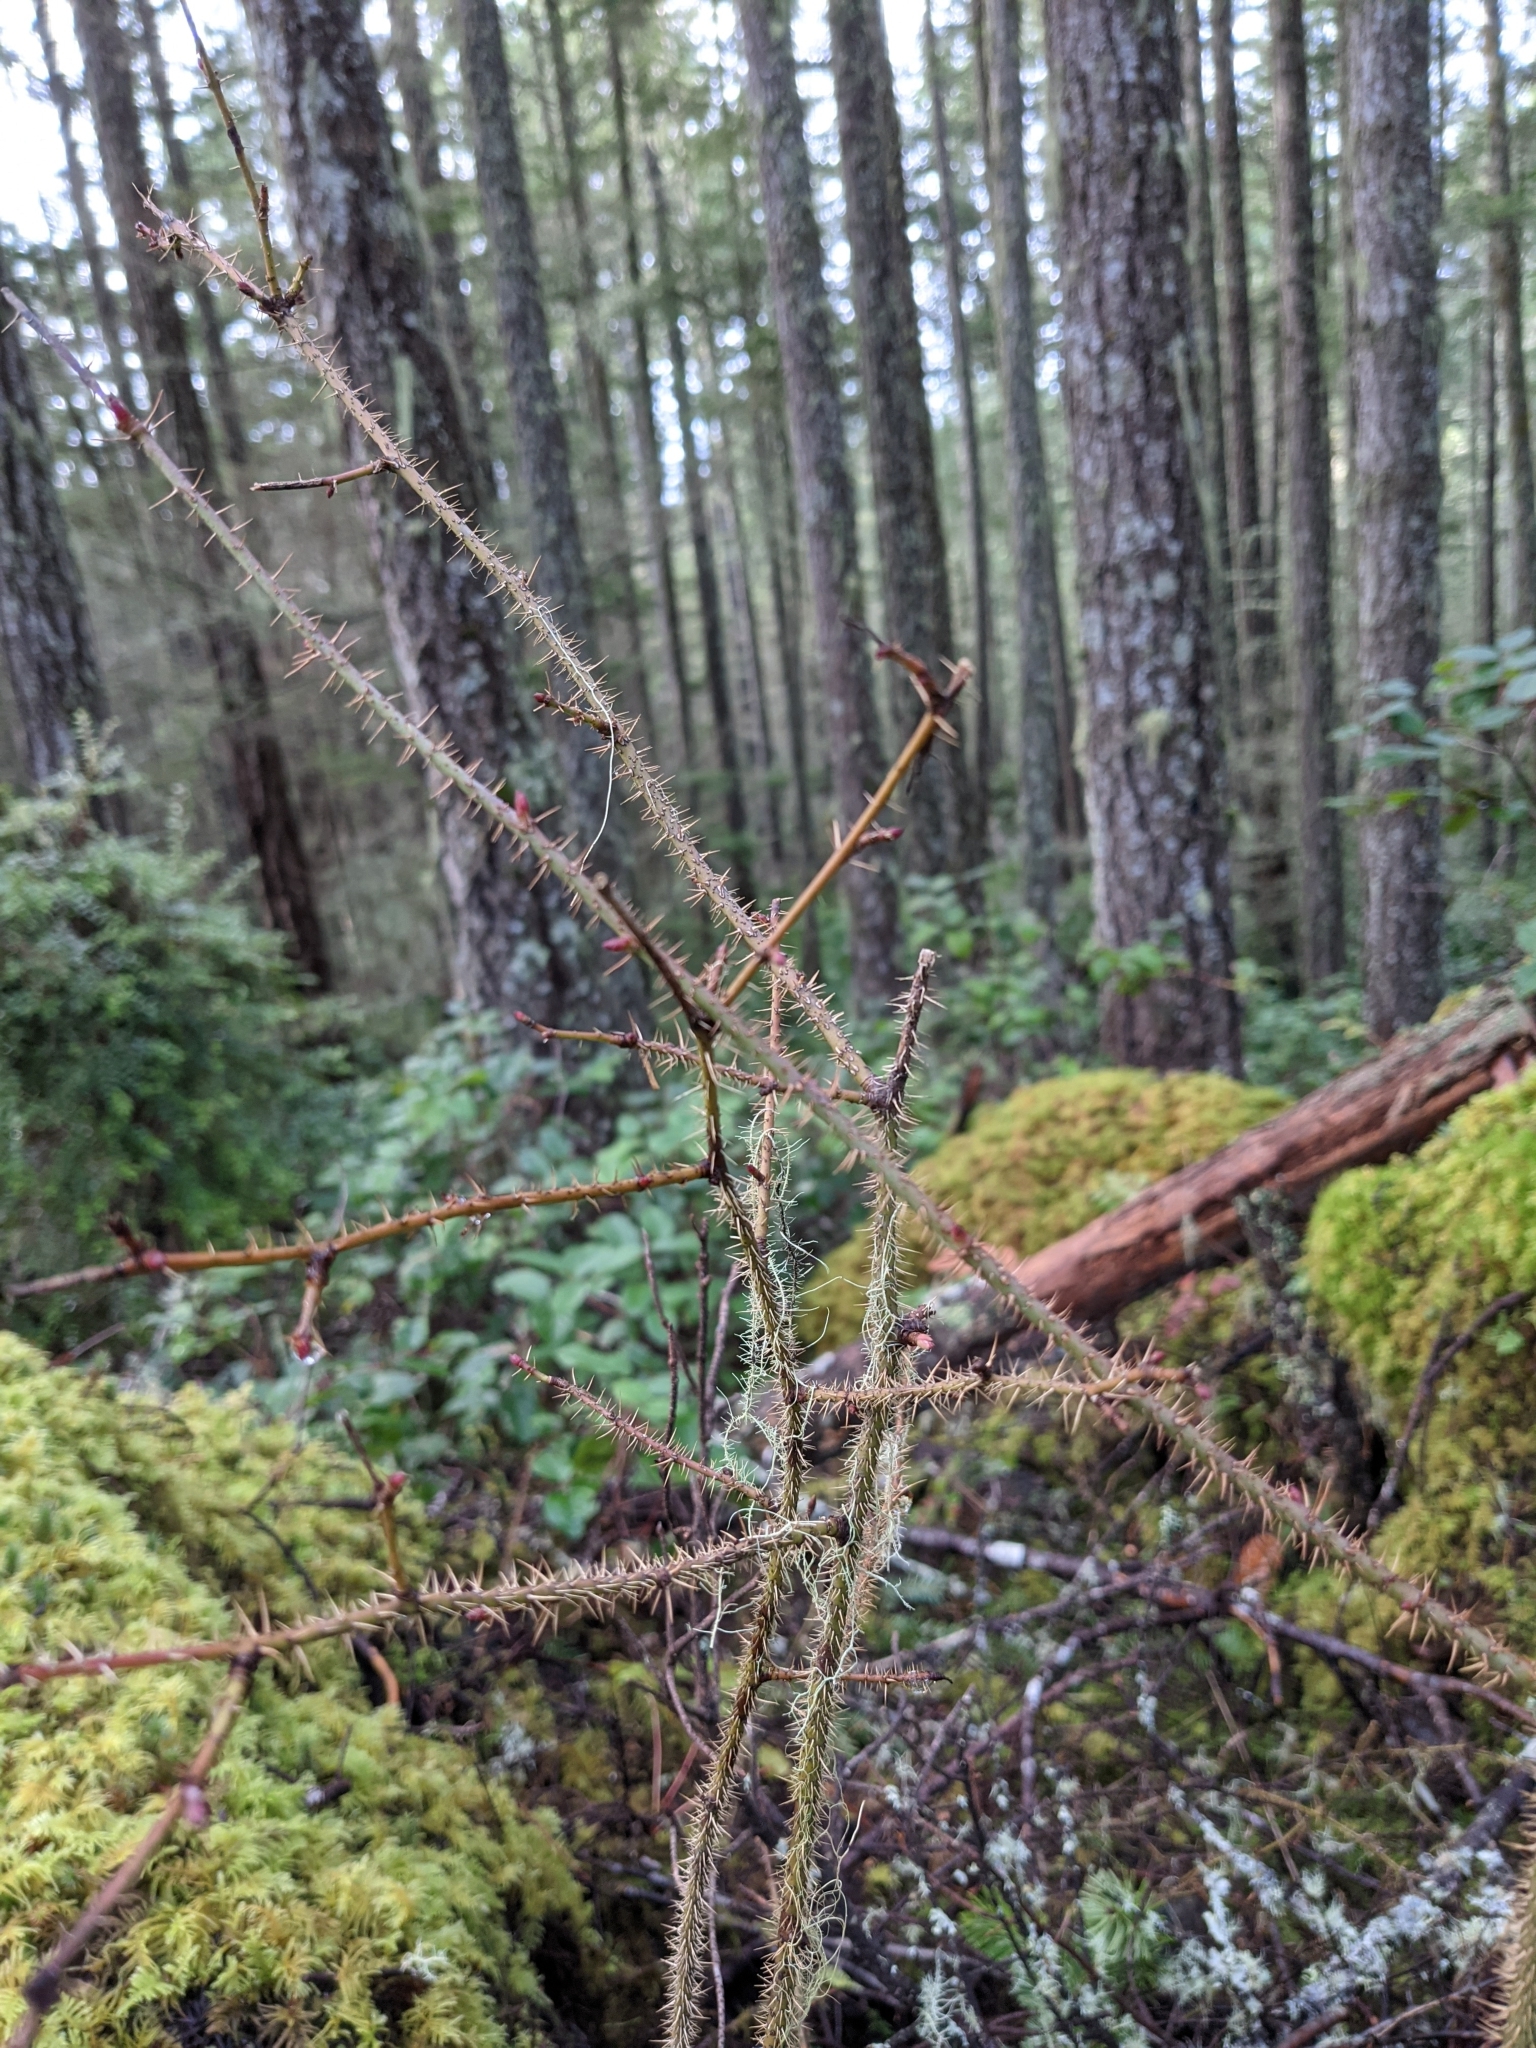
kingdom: Plantae
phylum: Tracheophyta
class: Magnoliopsida
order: Rosales
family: Rosaceae
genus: Rosa
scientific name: Rosa gymnocarpa
